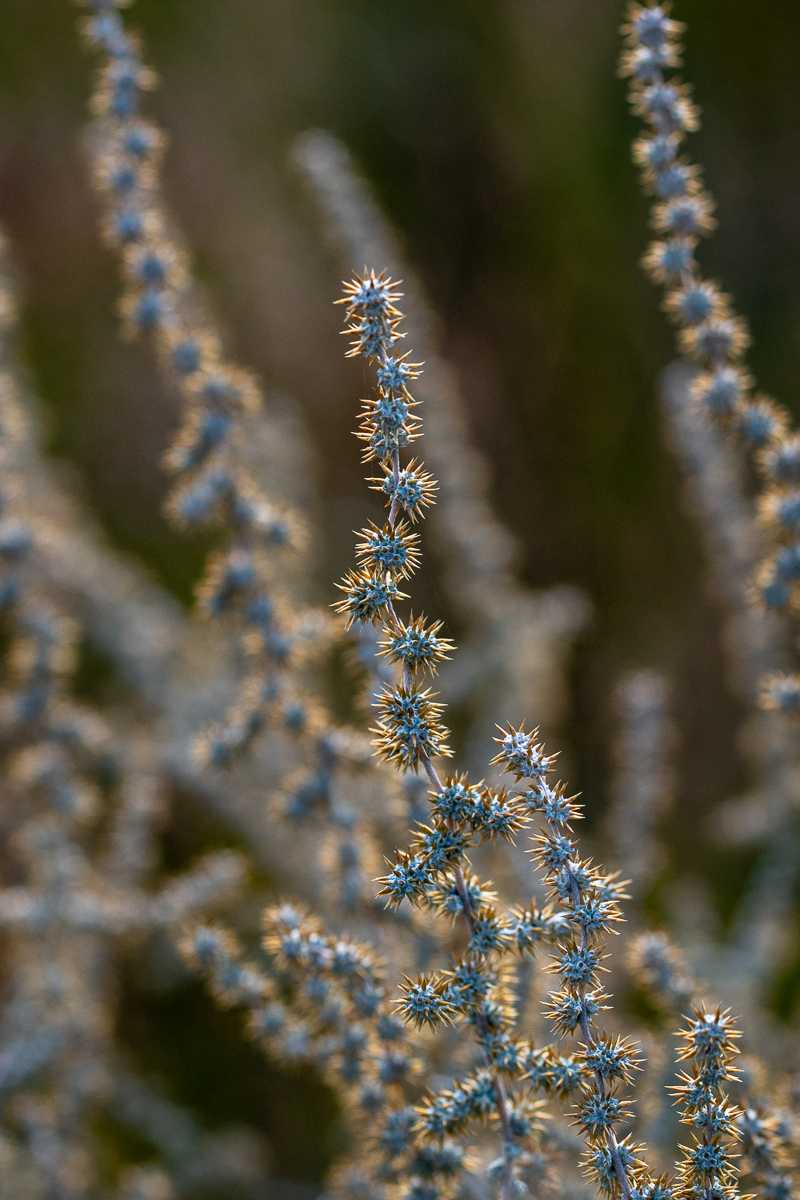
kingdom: Plantae
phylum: Tracheophyta
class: Magnoliopsida
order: Asterales
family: Asteraceae
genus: Seriphium
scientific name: Seriphium plumosum
